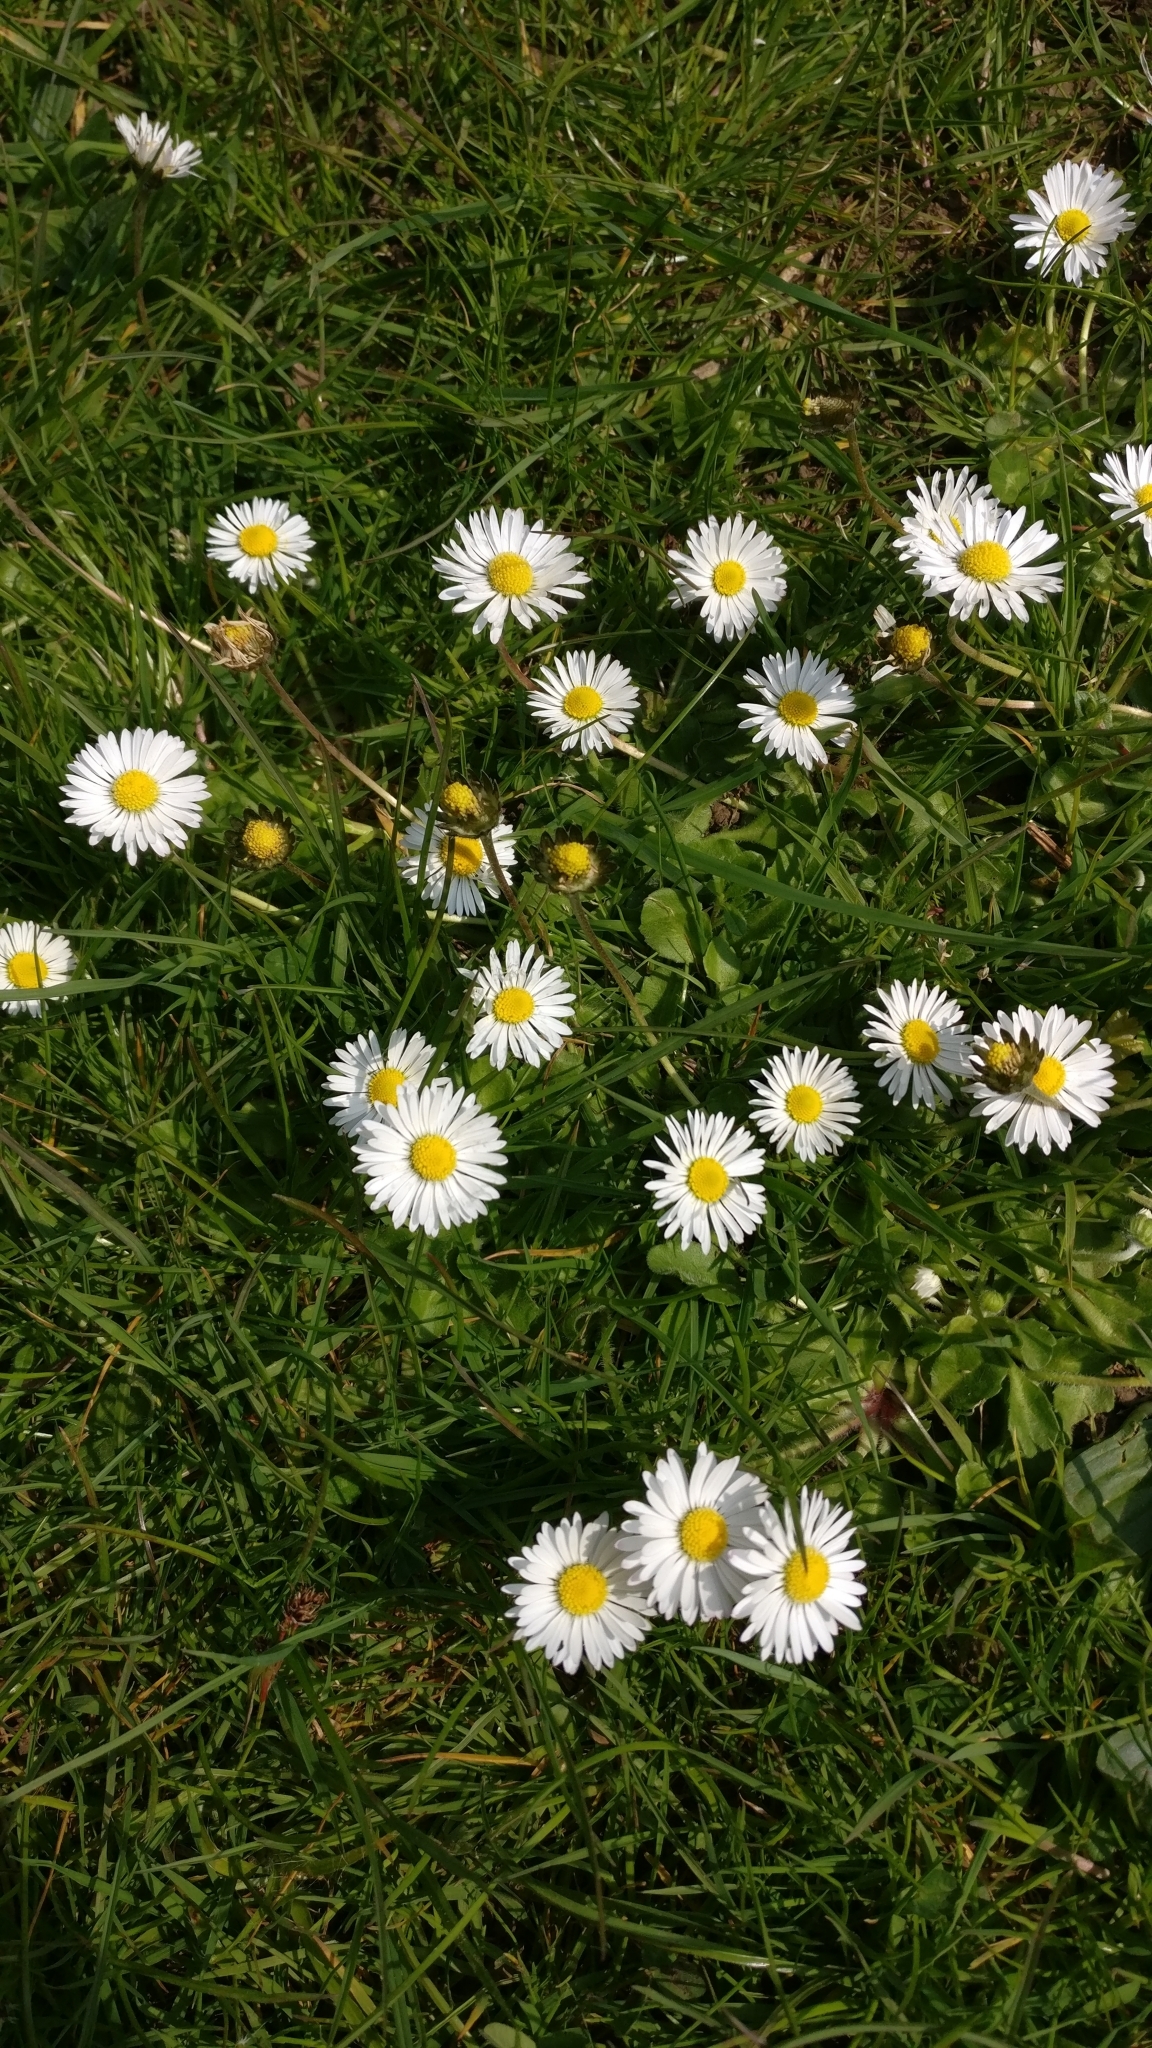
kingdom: Plantae
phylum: Tracheophyta
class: Magnoliopsida
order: Asterales
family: Asteraceae
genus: Bellis
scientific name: Bellis perennis
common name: Lawndaisy
